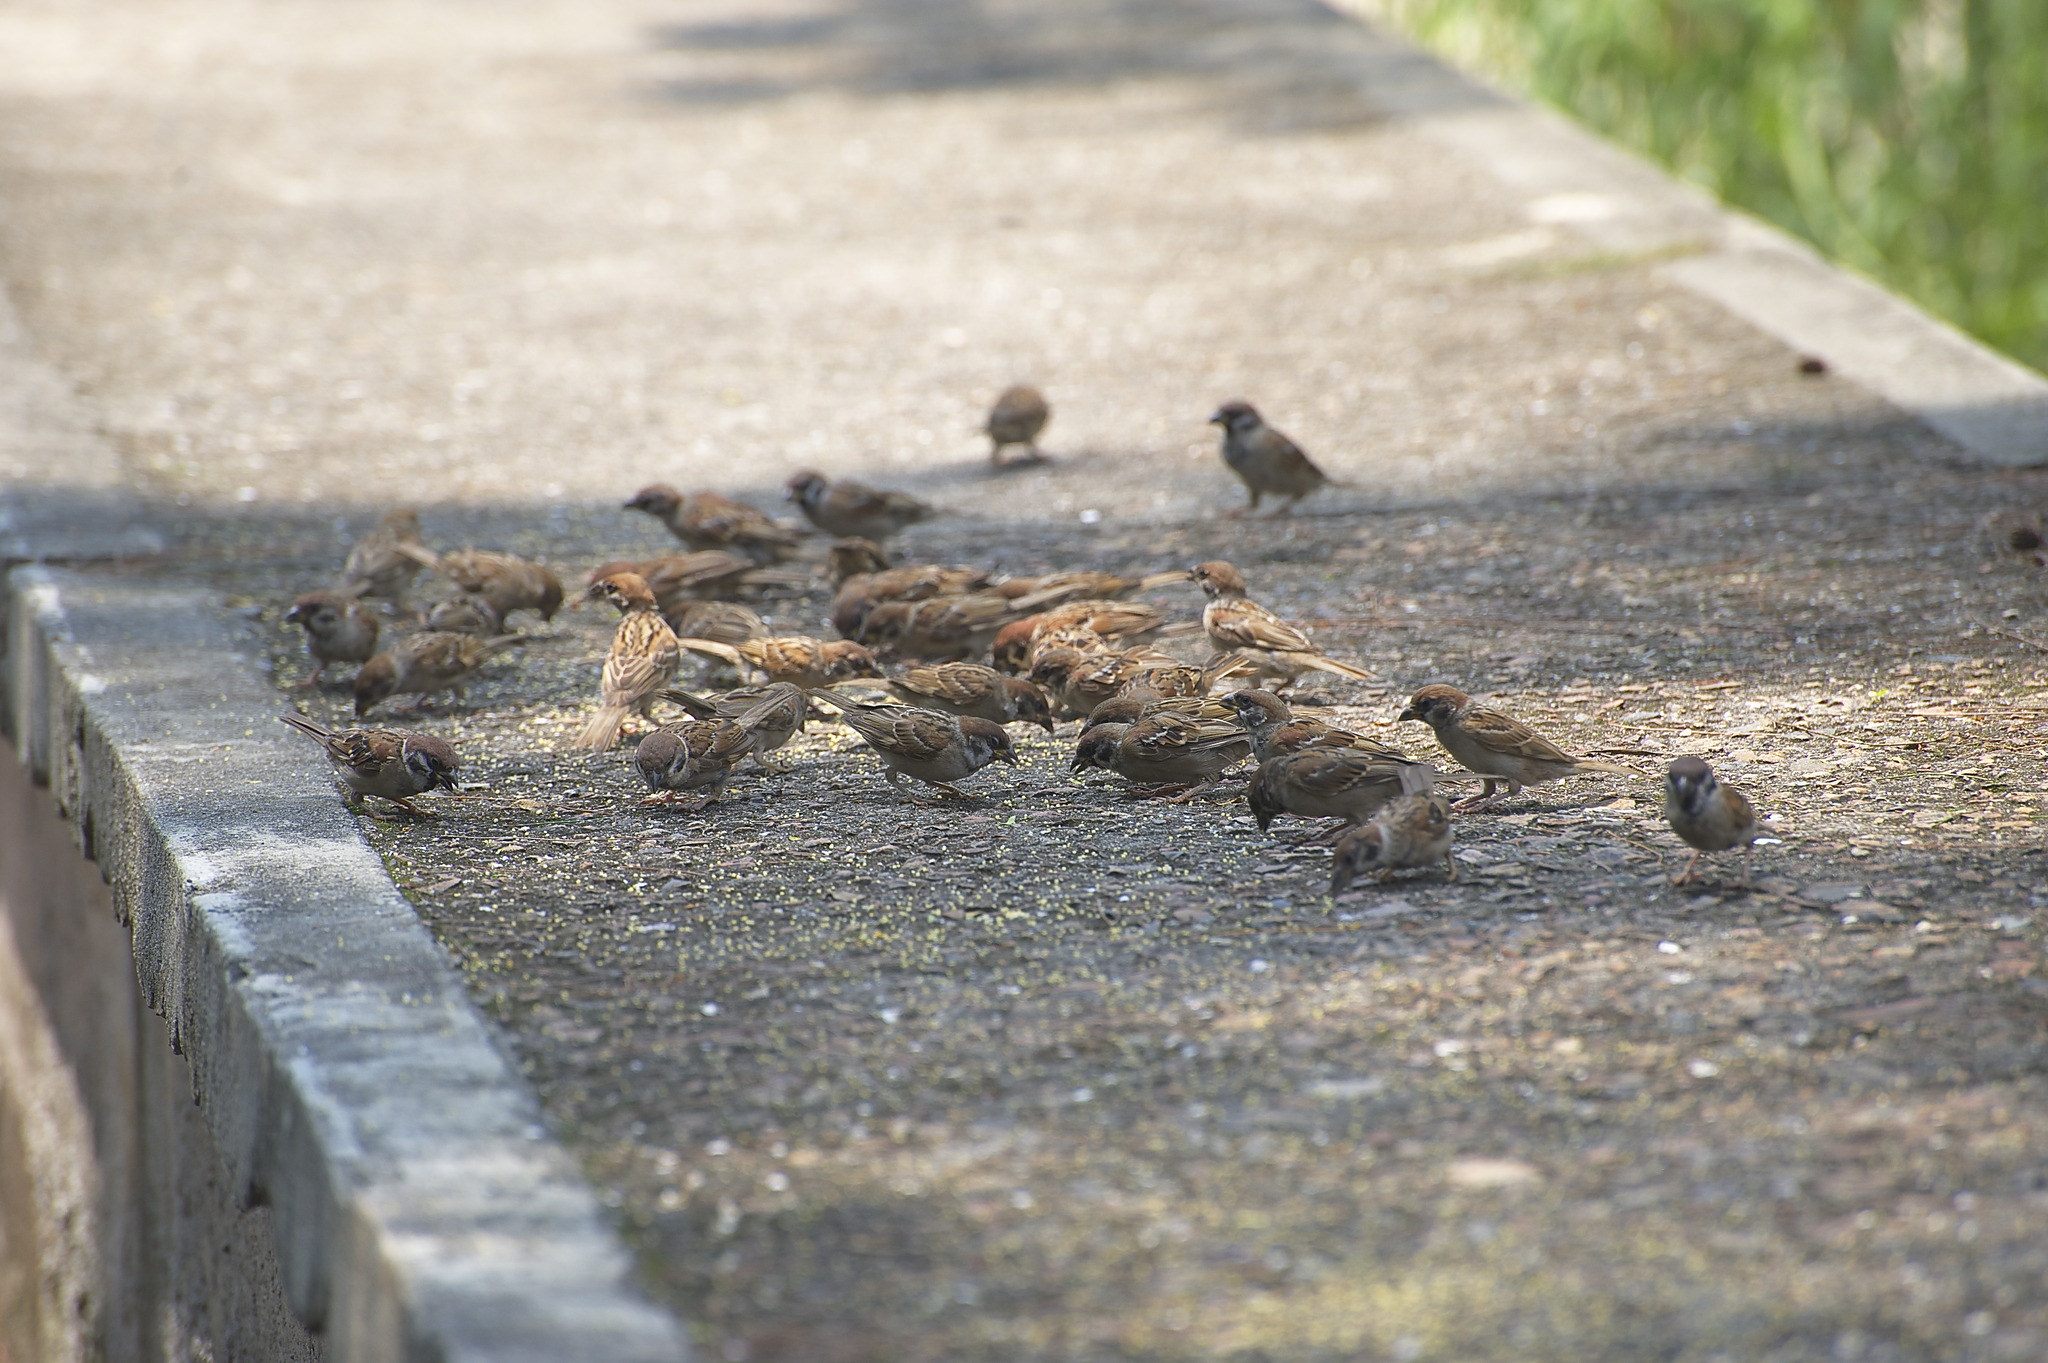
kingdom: Animalia
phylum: Chordata
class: Aves
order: Passeriformes
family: Passeridae
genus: Passer
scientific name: Passer montanus
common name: Eurasian tree sparrow
